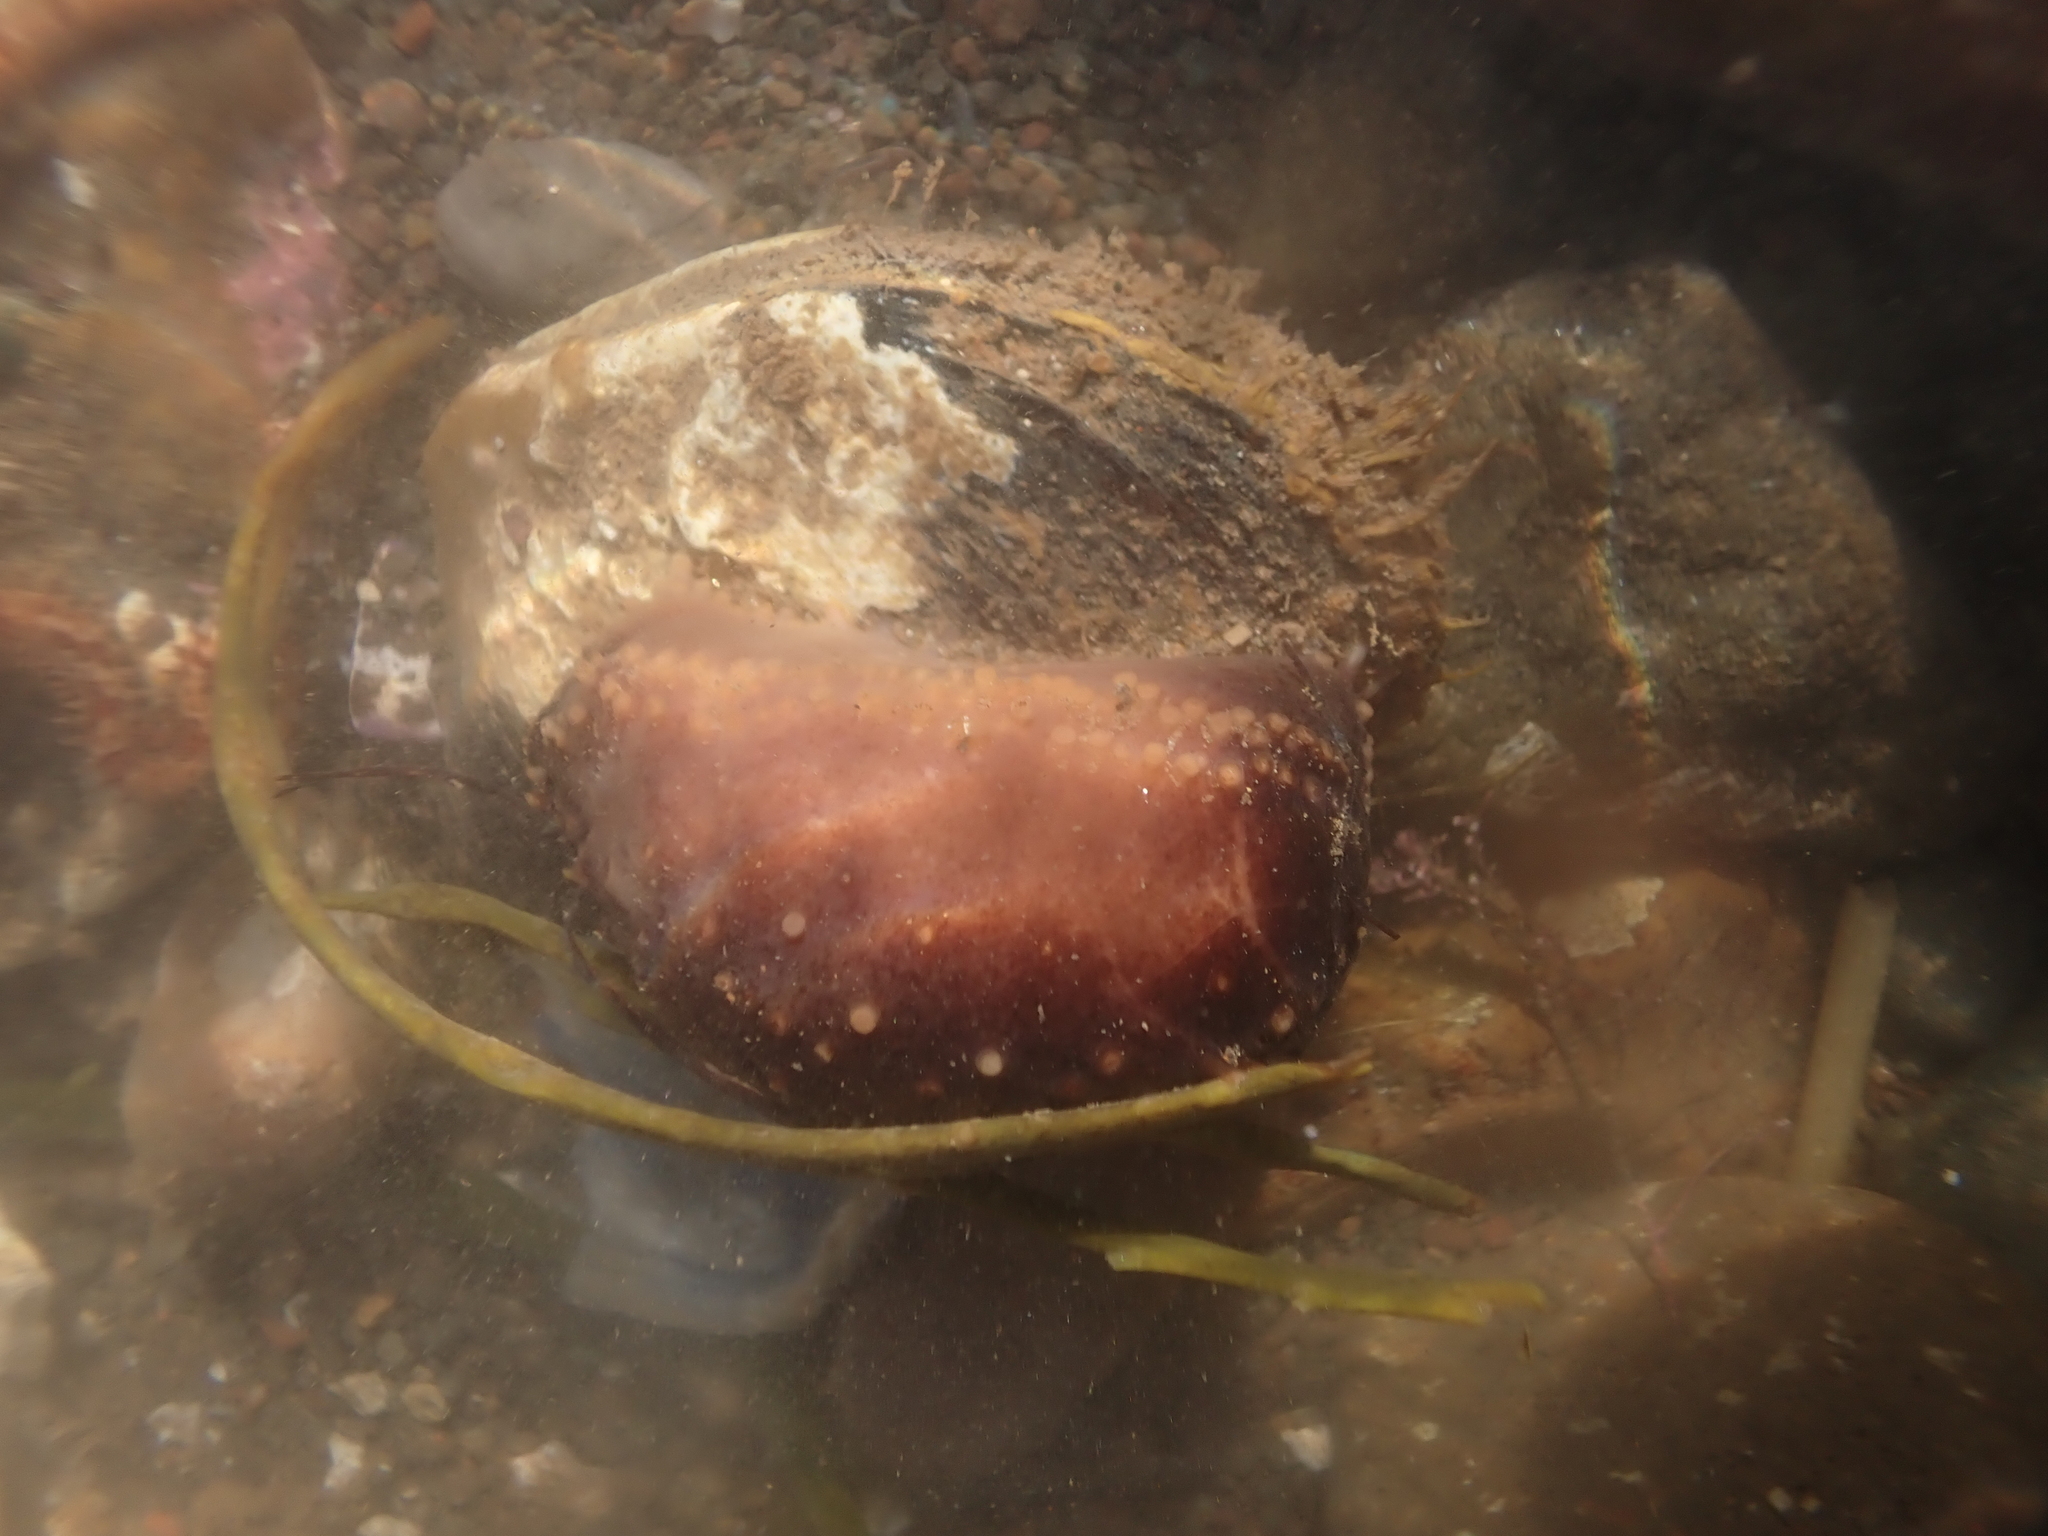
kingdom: Animalia
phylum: Echinodermata
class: Holothuroidea
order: Dendrochirotida
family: Cucumariidae
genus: Cucumaria
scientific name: Cucumaria frondosa
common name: Orange-footed sea cucumber
